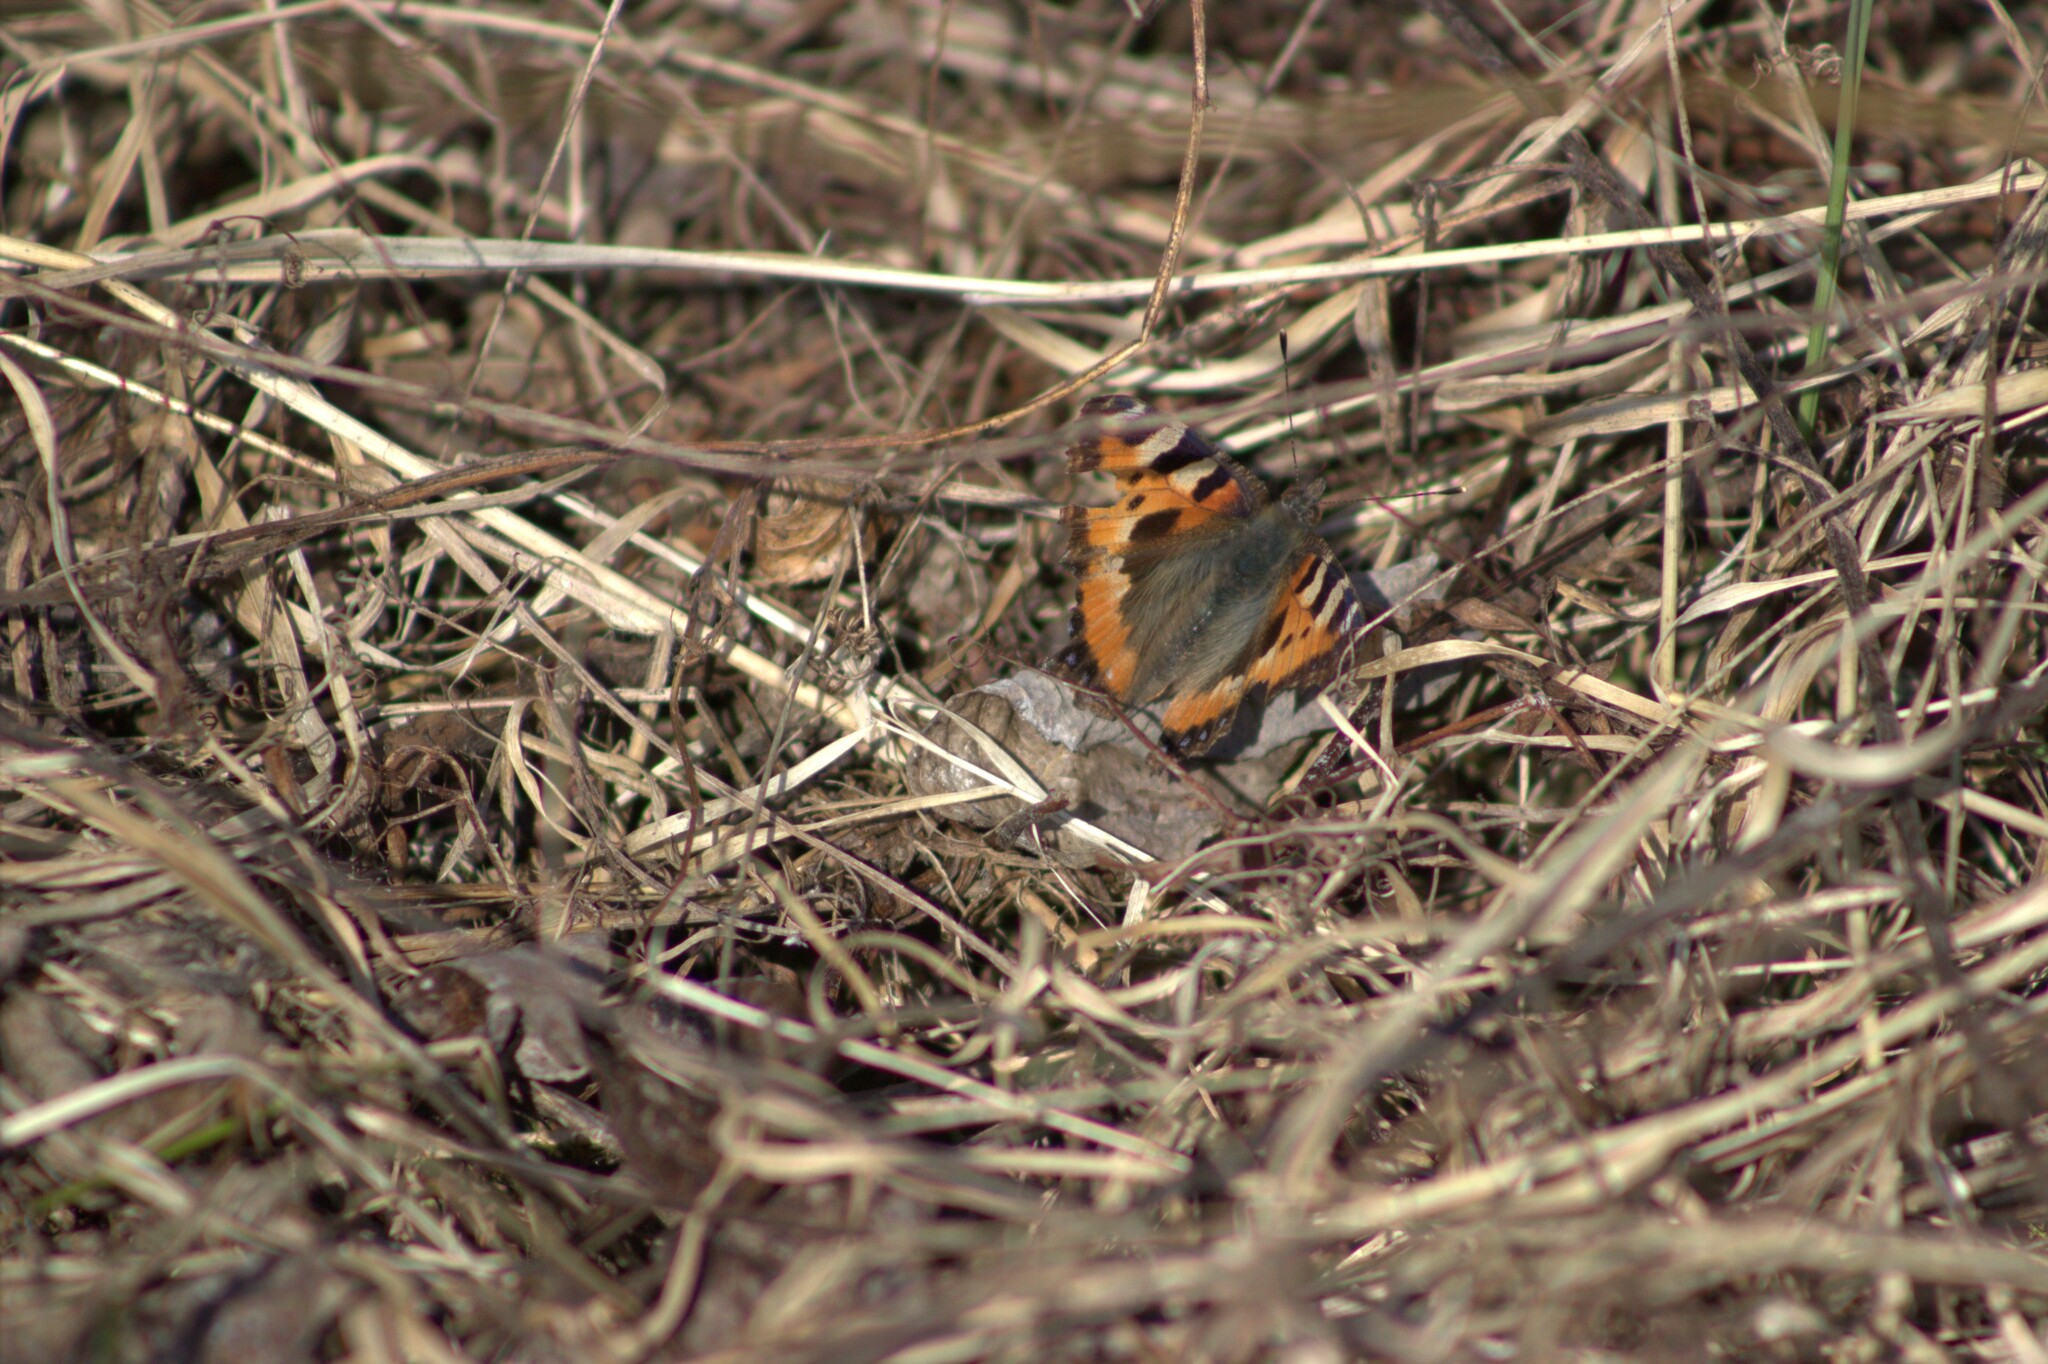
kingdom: Animalia
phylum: Arthropoda
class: Insecta
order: Lepidoptera
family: Nymphalidae
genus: Aglais
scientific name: Aglais urticae
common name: Small tortoiseshell
